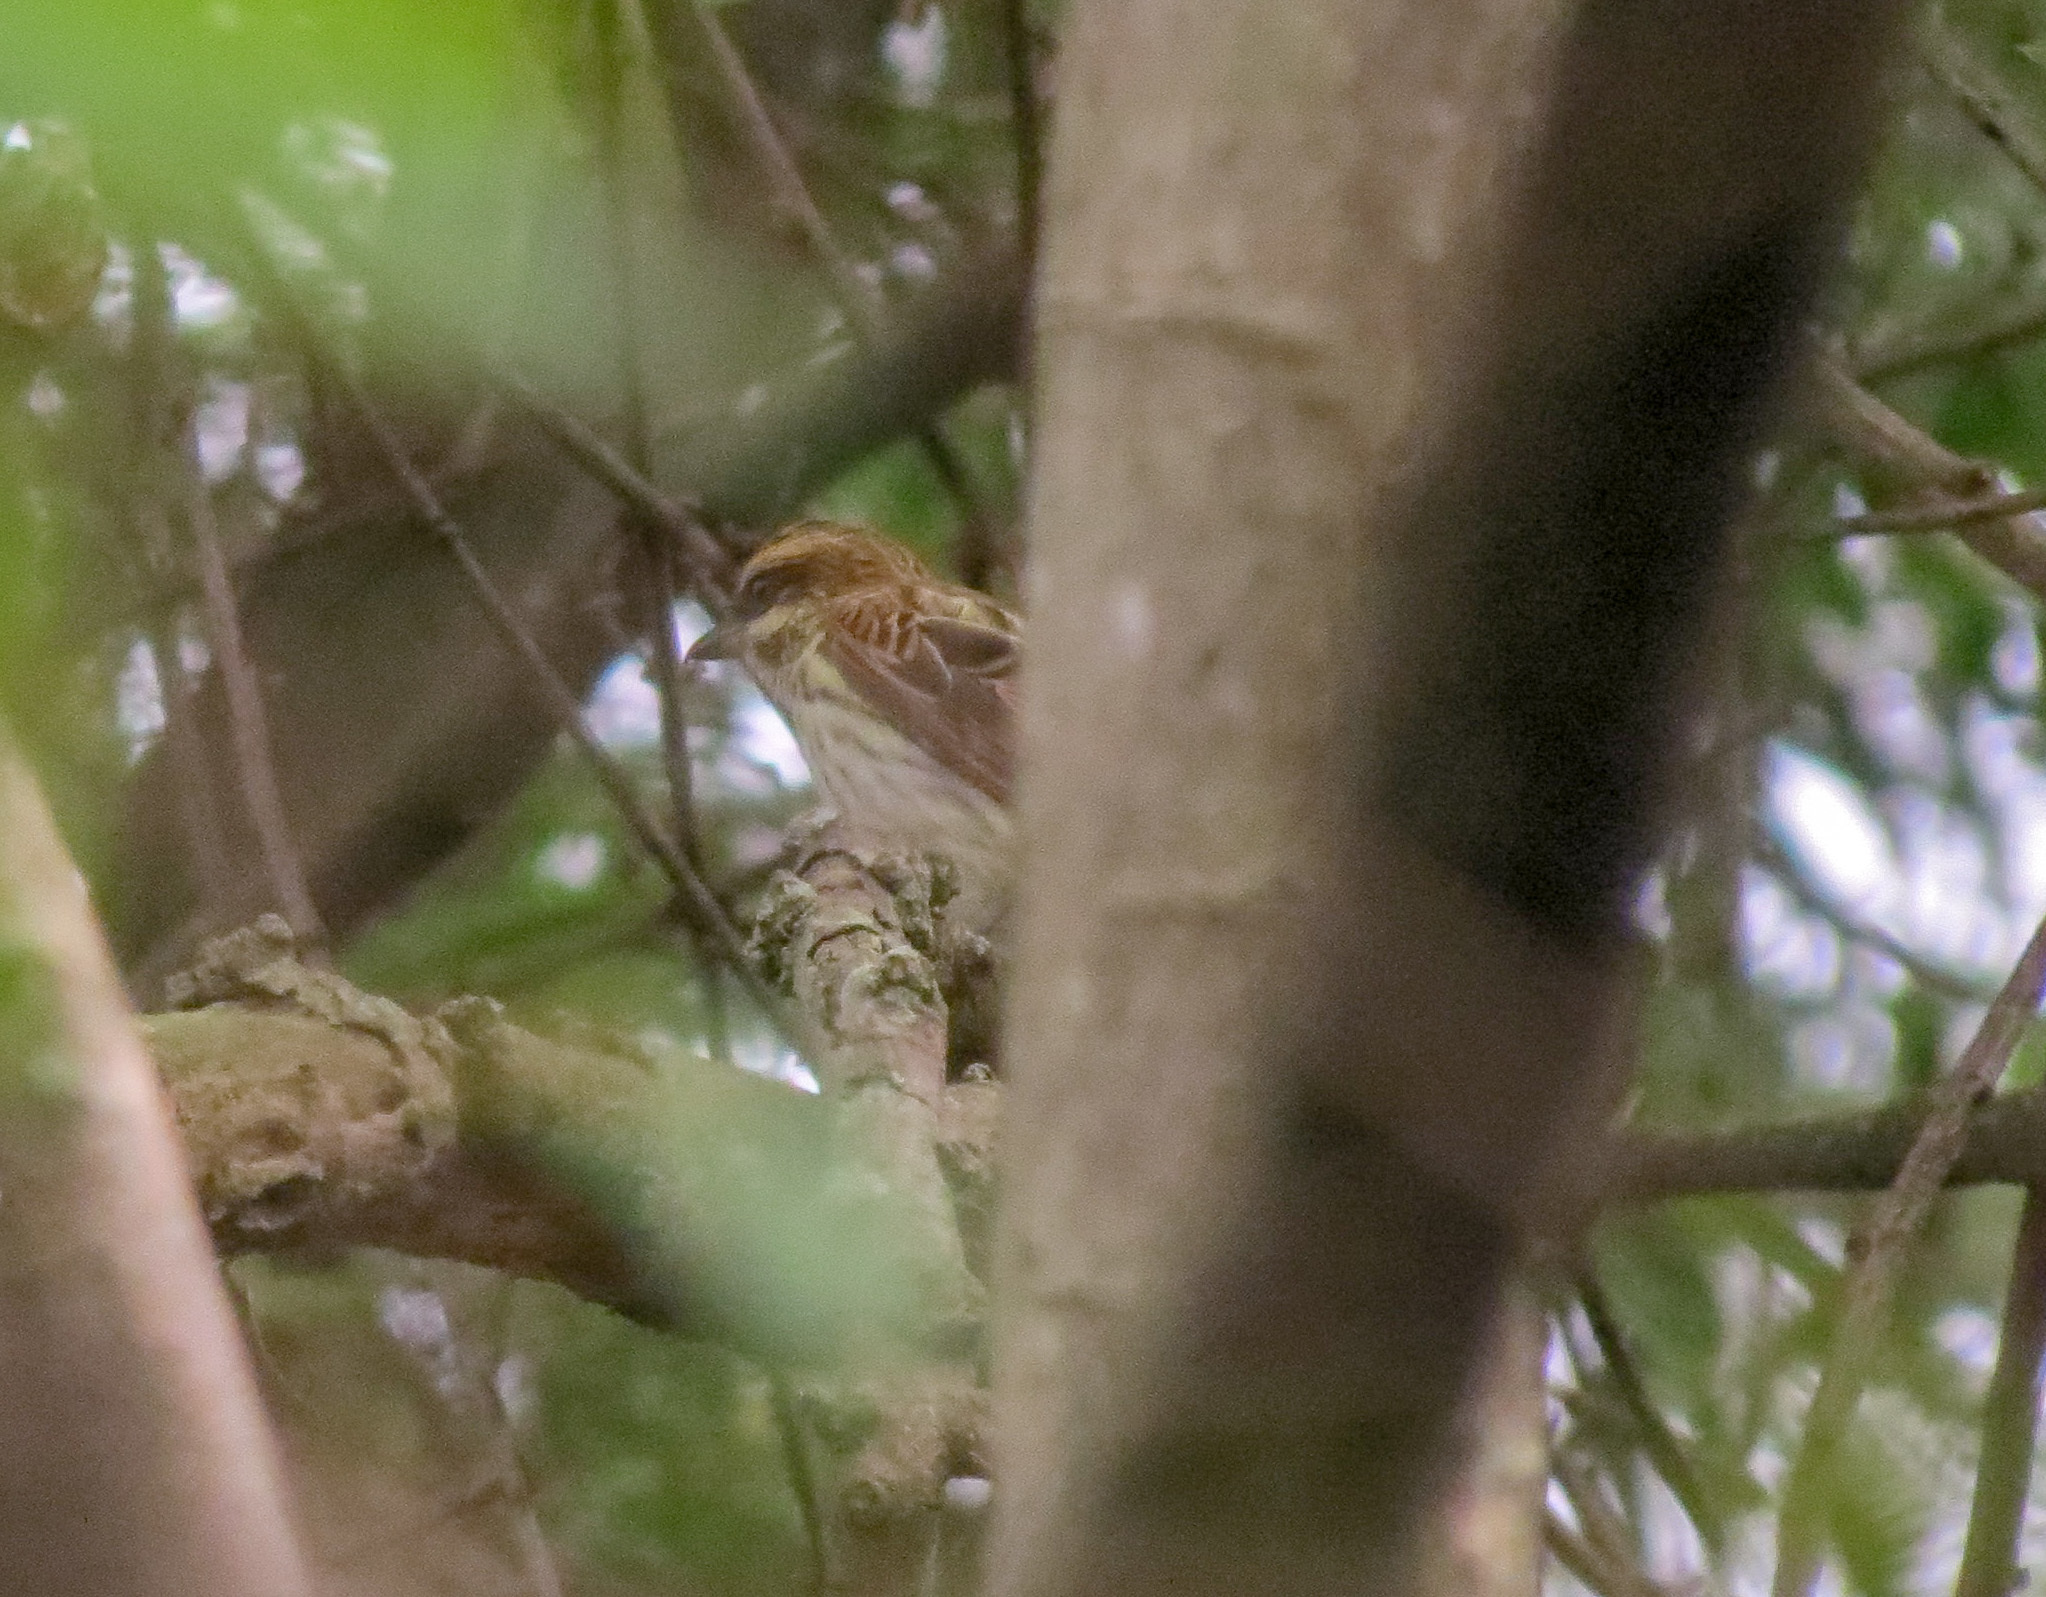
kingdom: Animalia
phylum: Chordata
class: Aves
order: Passeriformes
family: Tyrannidae
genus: Myiodynastes
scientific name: Myiodynastes maculatus
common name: Streaked flycatcher
